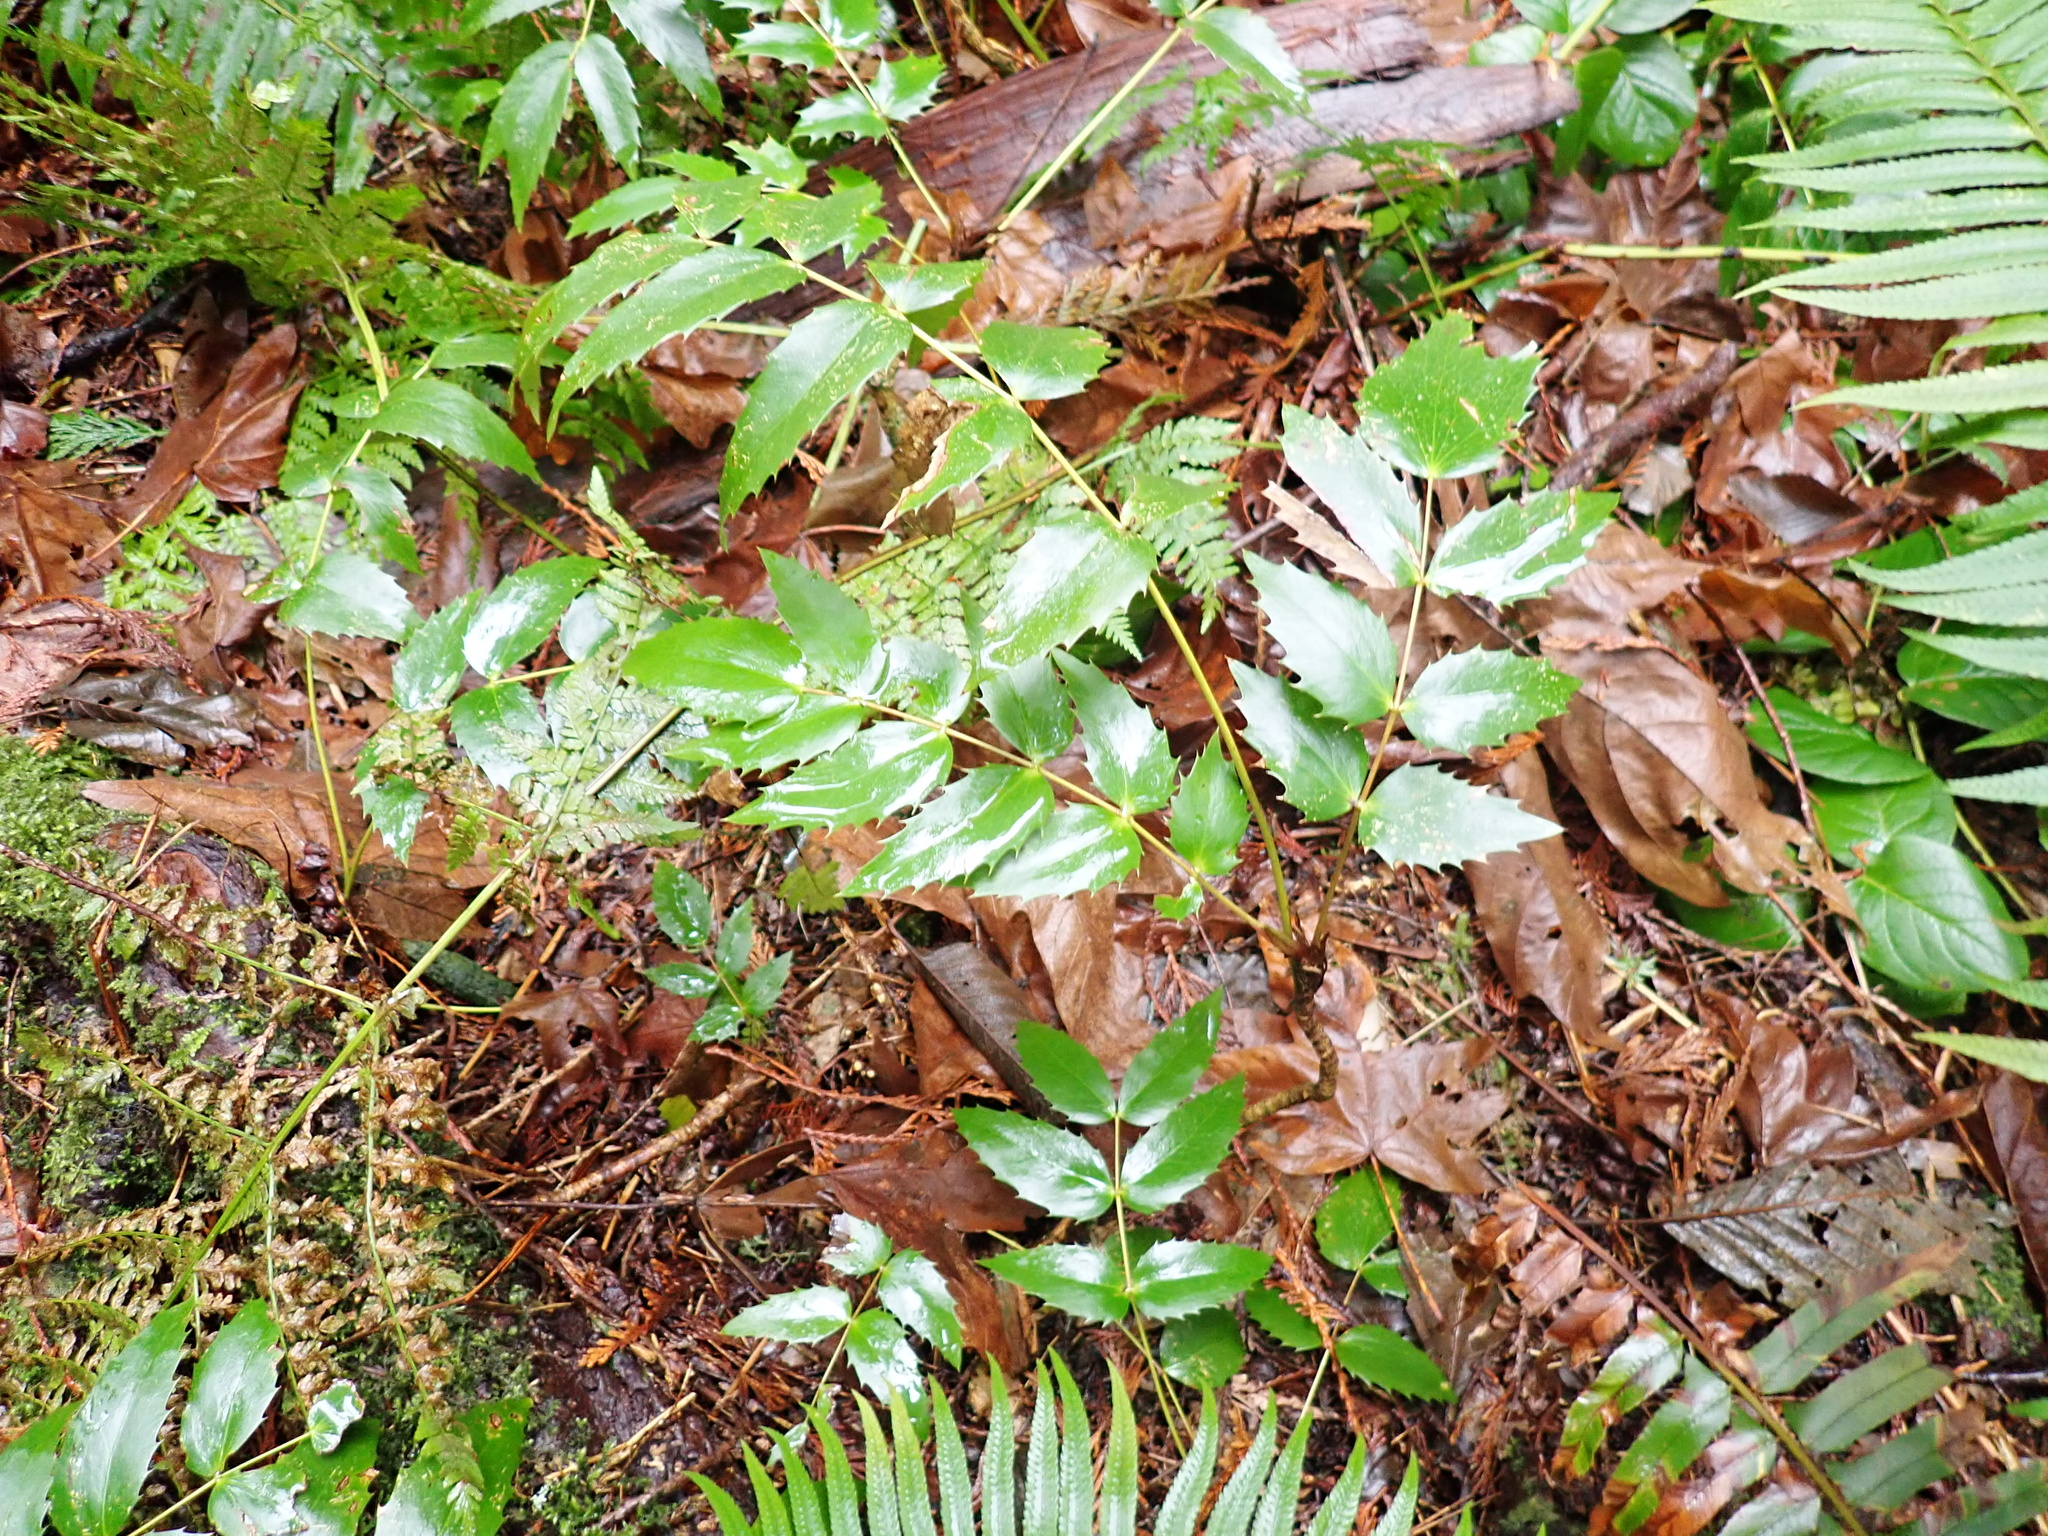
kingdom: Plantae
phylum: Tracheophyta
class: Magnoliopsida
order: Ranunculales
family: Berberidaceae
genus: Mahonia
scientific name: Mahonia nervosa
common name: Cascade oregon-grape
